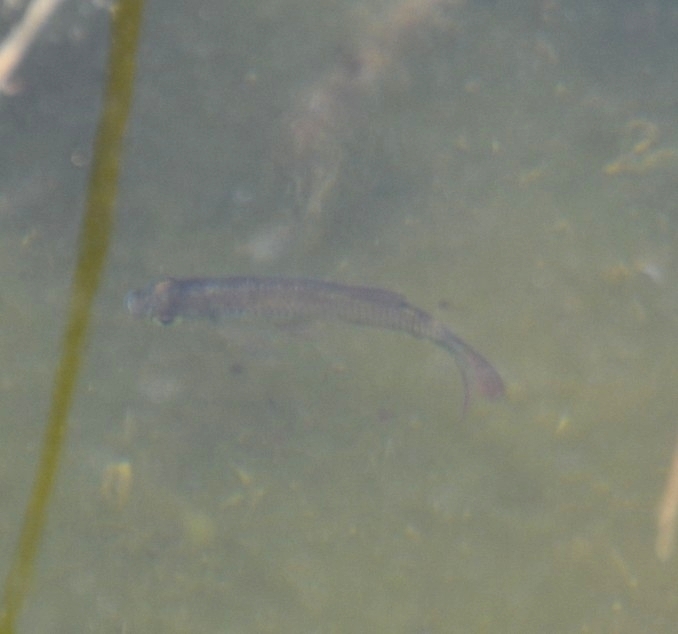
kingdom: Animalia
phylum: Chordata
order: Characiformes
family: Characidae
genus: Astyanax
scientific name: Astyanax eigenmanniorum
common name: Tetra
